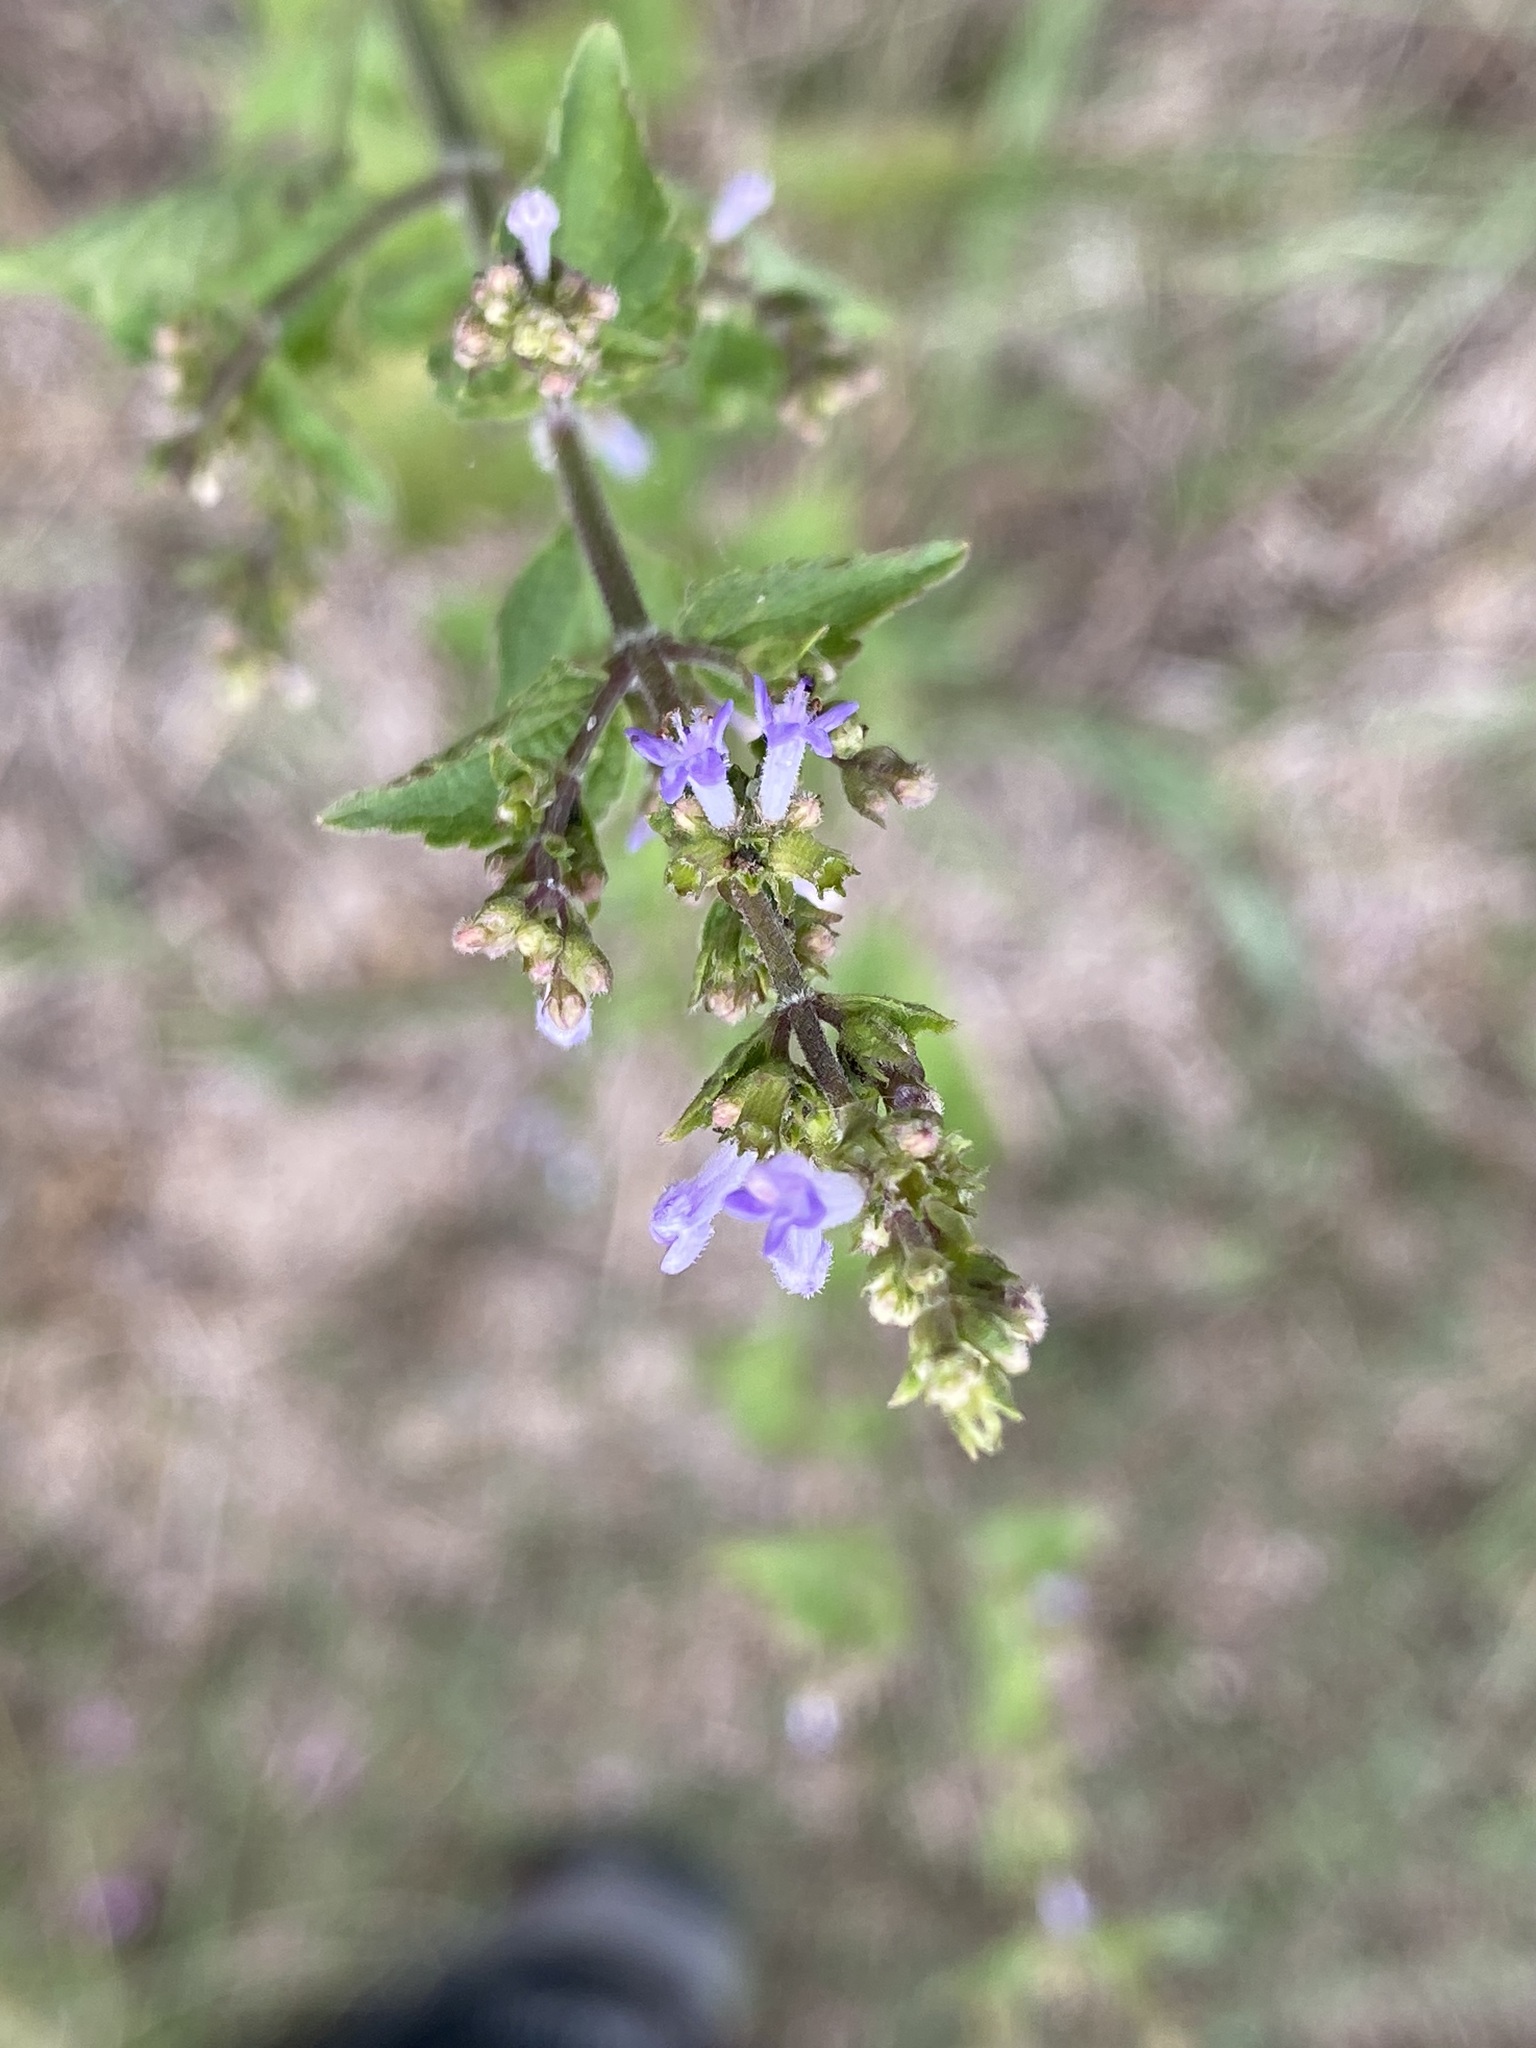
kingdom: Plantae
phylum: Tracheophyta
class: Magnoliopsida
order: Lamiales
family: Lamiaceae
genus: Cantinoa
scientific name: Cantinoa mutabilis
